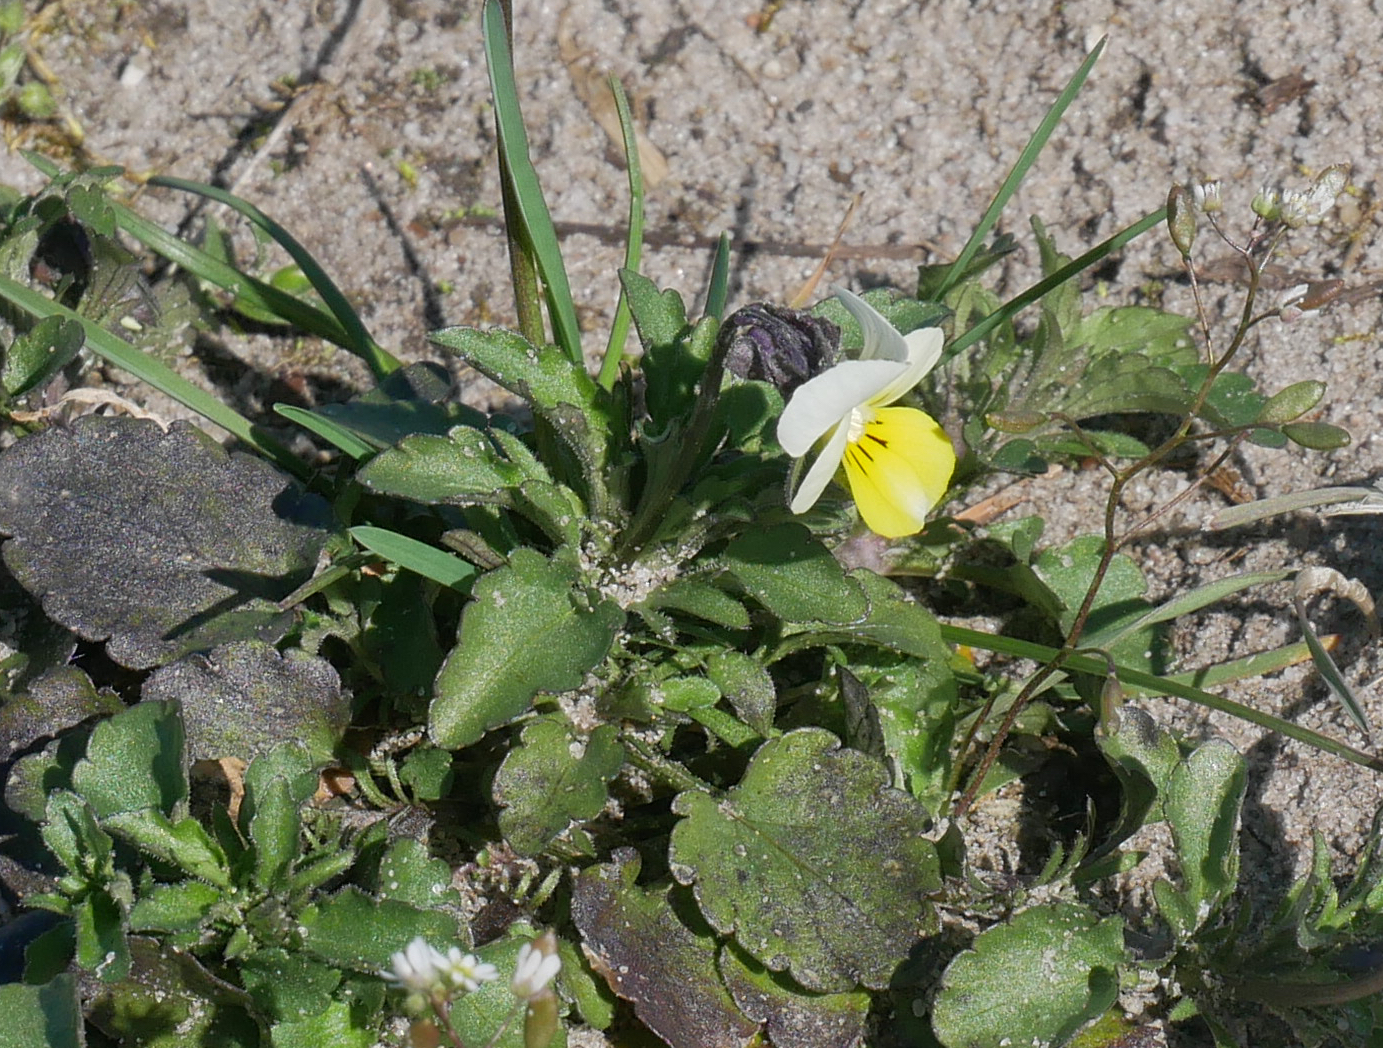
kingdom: Plantae
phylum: Tracheophyta
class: Magnoliopsida
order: Malpighiales
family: Violaceae
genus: Viola
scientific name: Viola arvensis
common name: Field pansy
